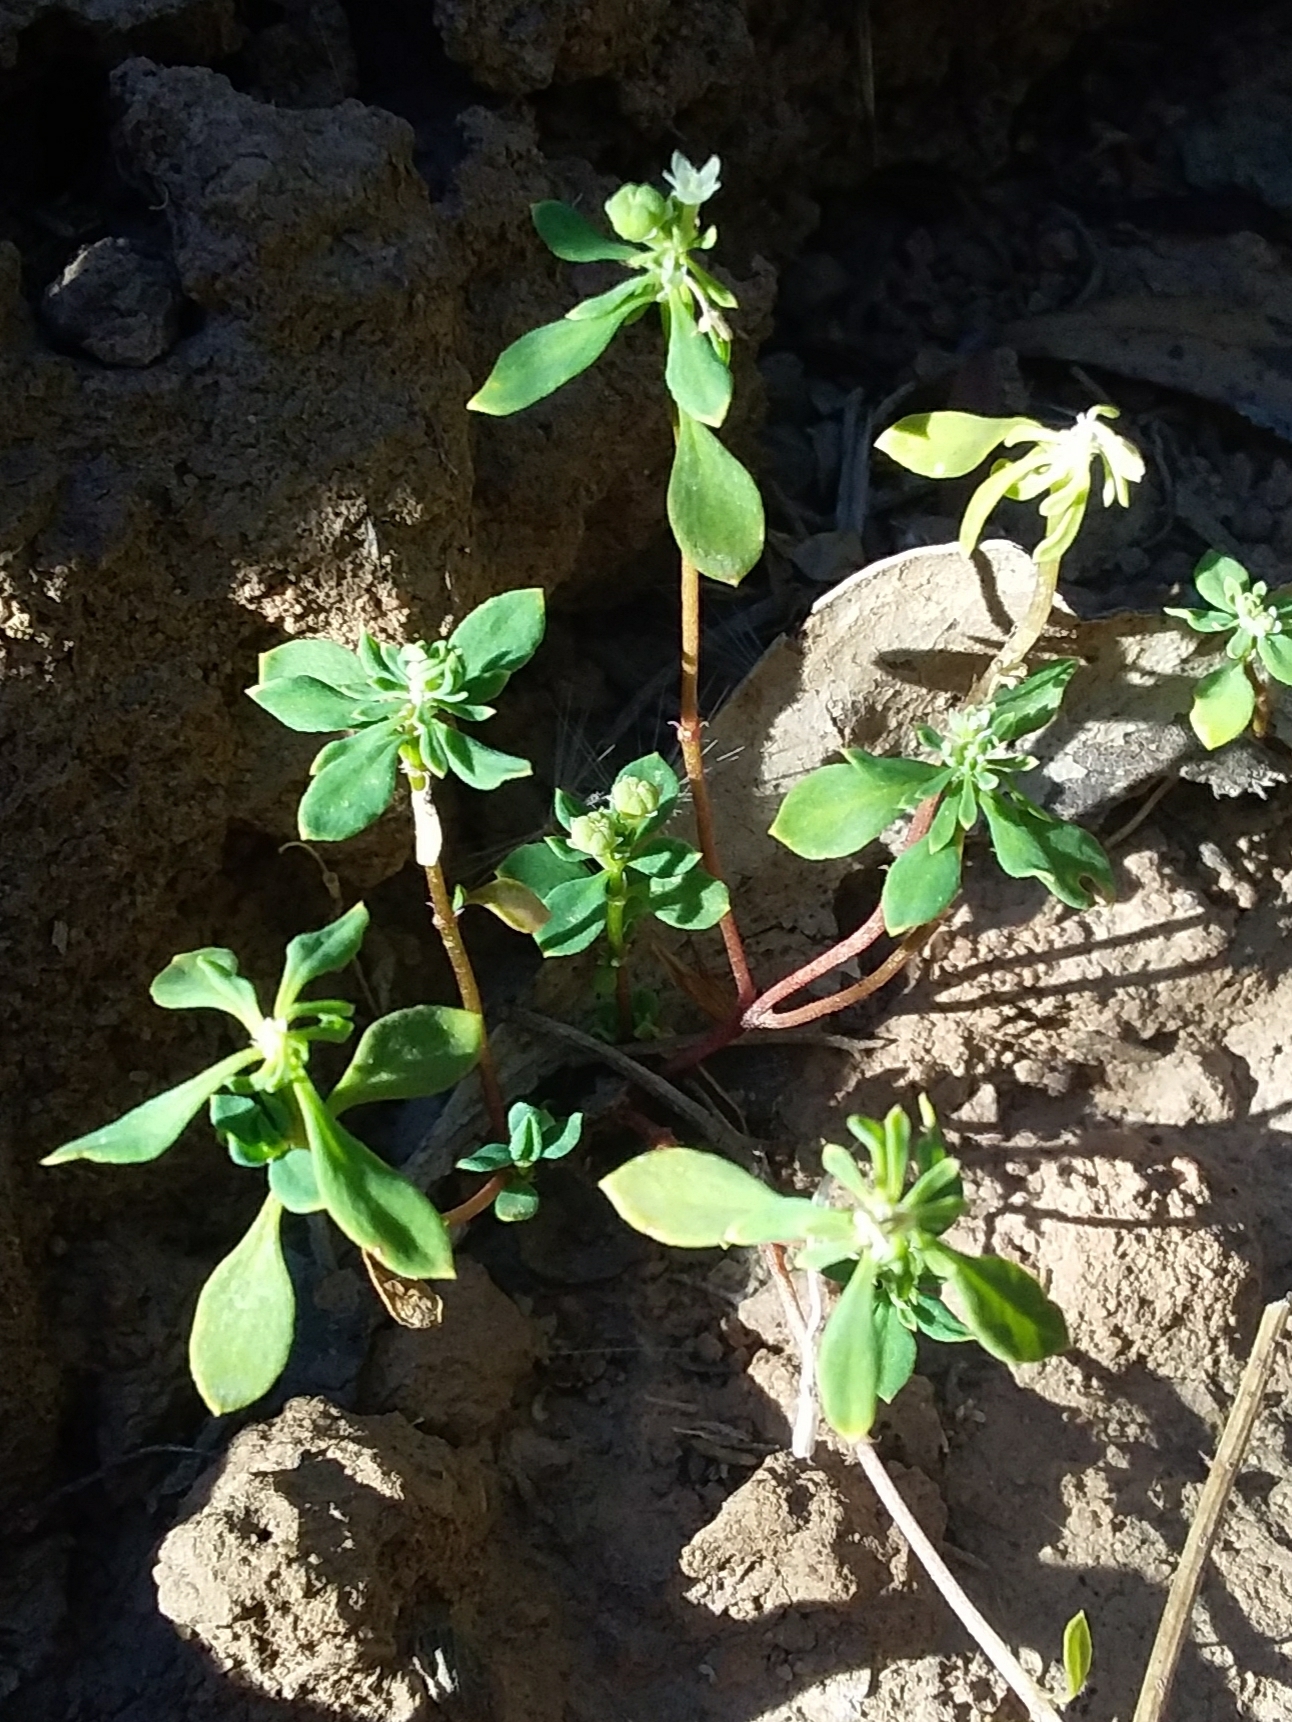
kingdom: Plantae
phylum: Tracheophyta
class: Magnoliopsida
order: Malpighiales
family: Phyllanthaceae
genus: Poranthera
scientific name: Poranthera microphylla
